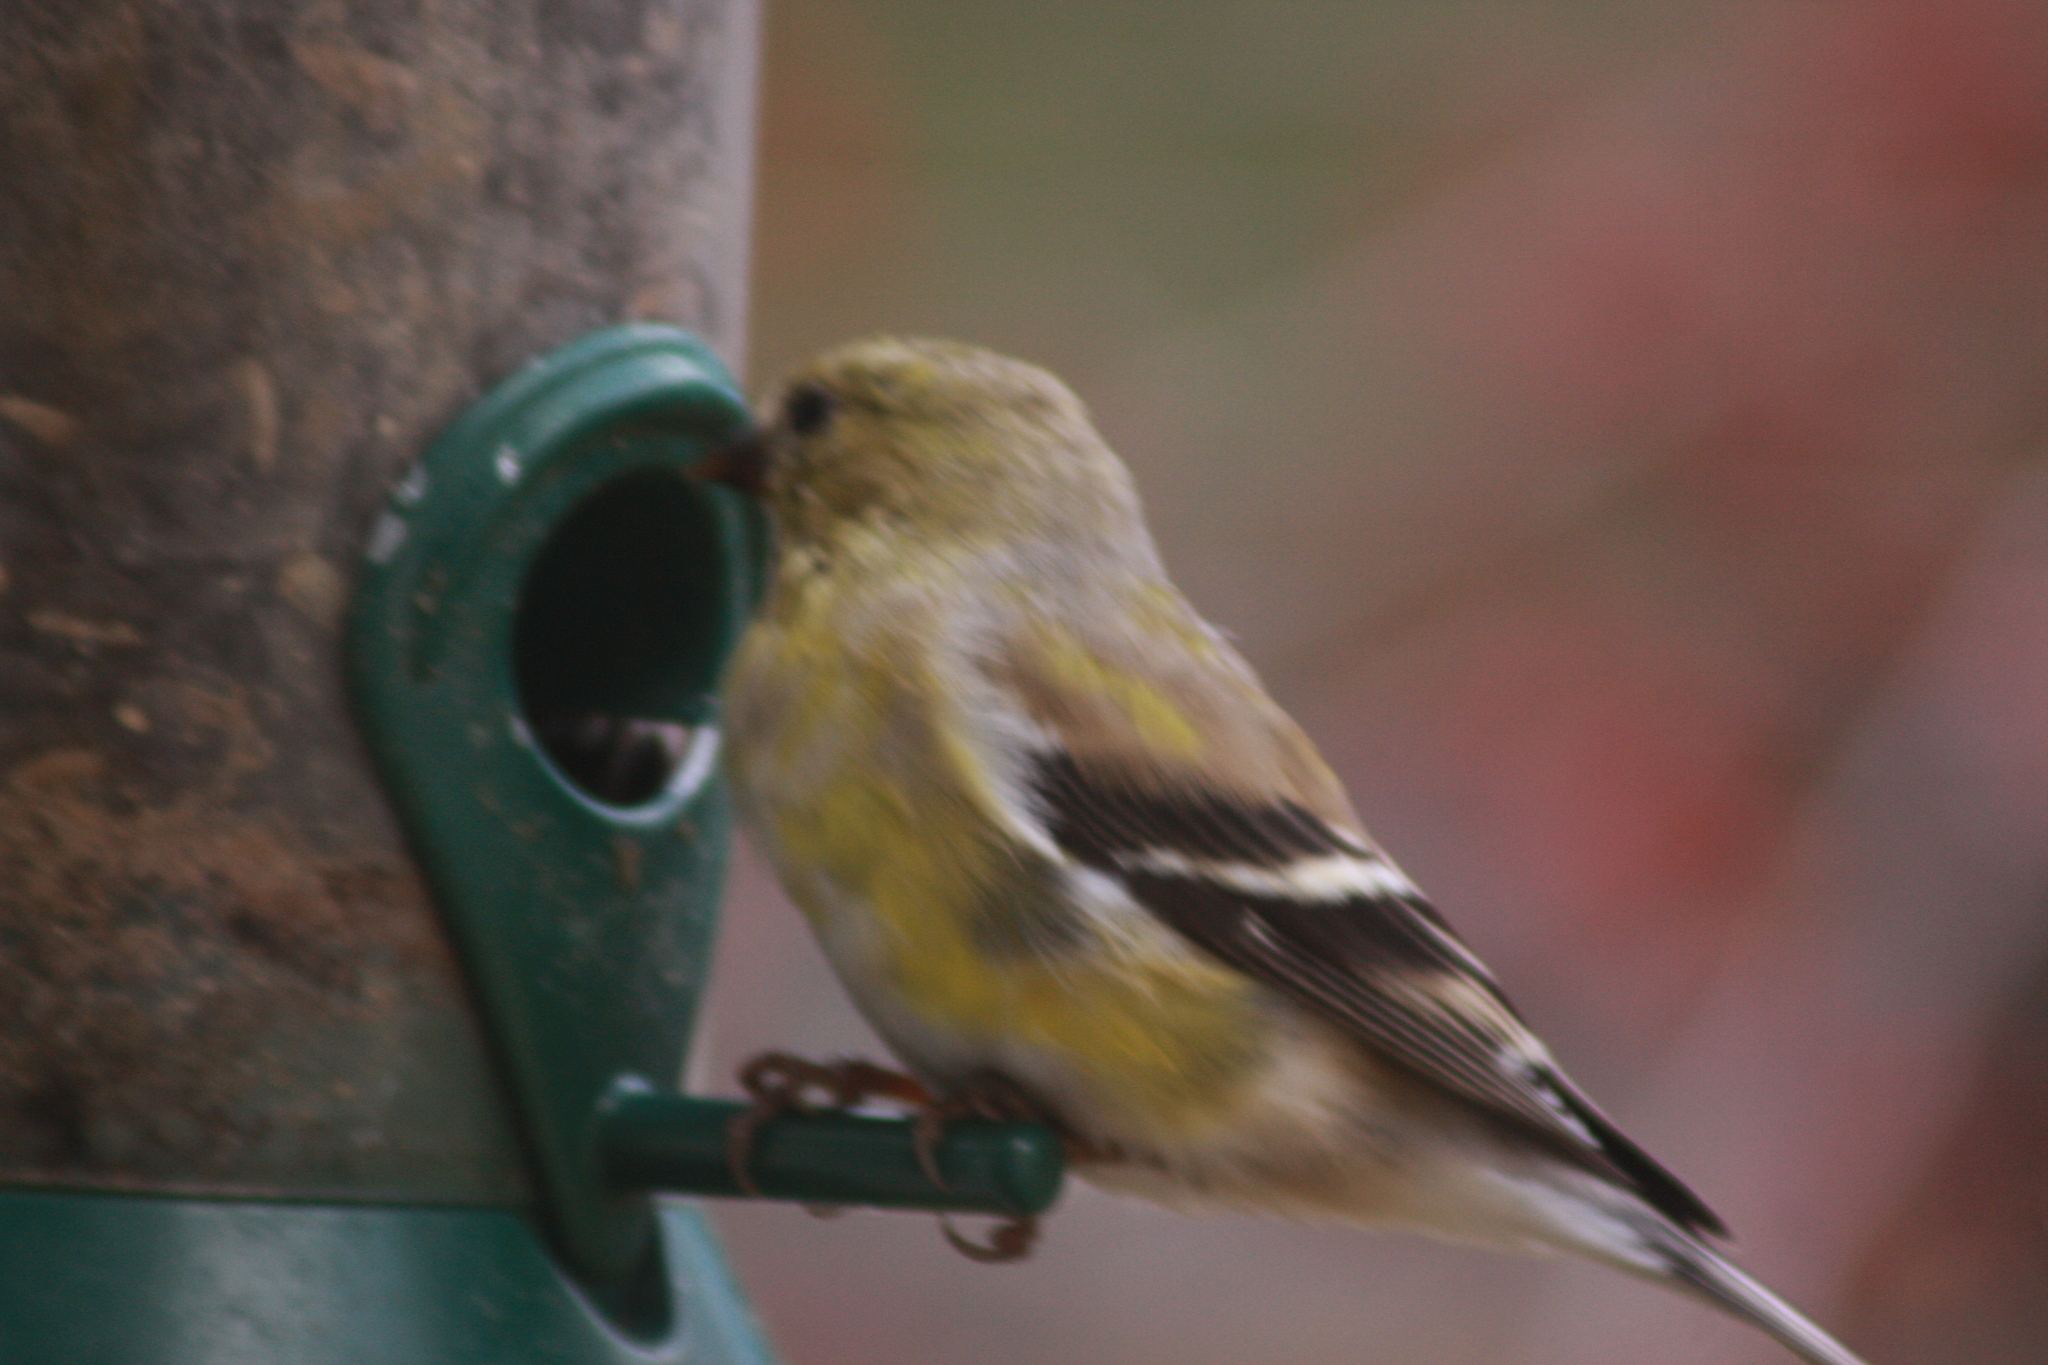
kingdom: Animalia
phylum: Chordata
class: Aves
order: Passeriformes
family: Fringillidae
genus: Spinus
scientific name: Spinus tristis
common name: American goldfinch
